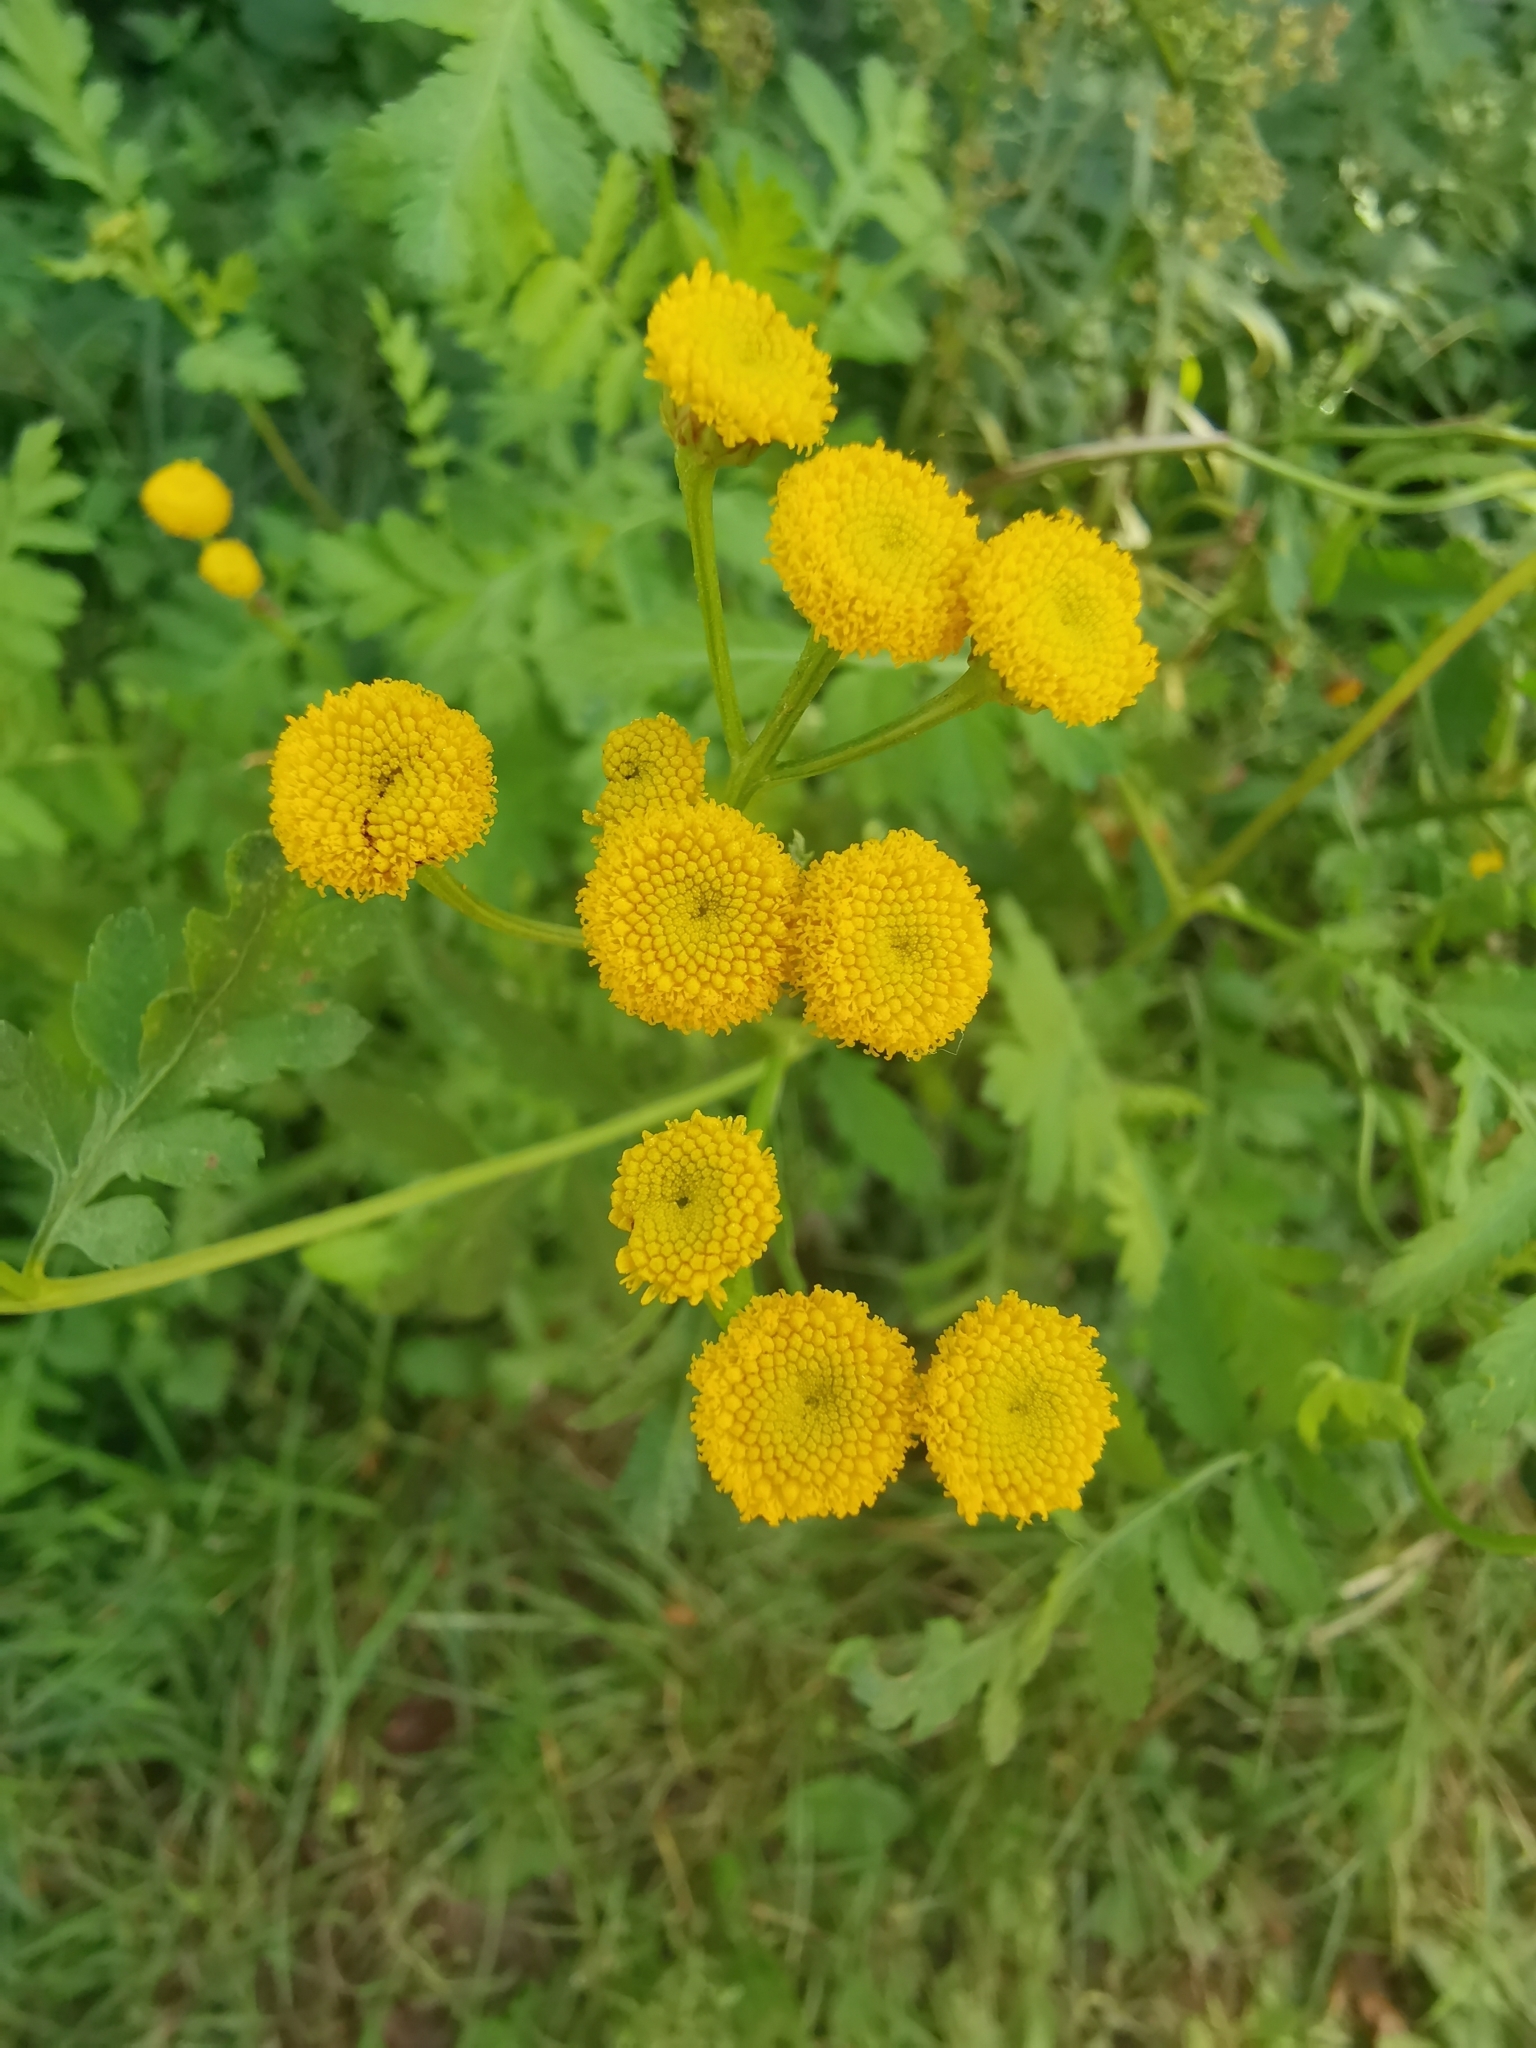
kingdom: Plantae
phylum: Tracheophyta
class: Magnoliopsida
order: Asterales
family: Asteraceae
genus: Tanacetum
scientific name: Tanacetum vulgare
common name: Common tansy
